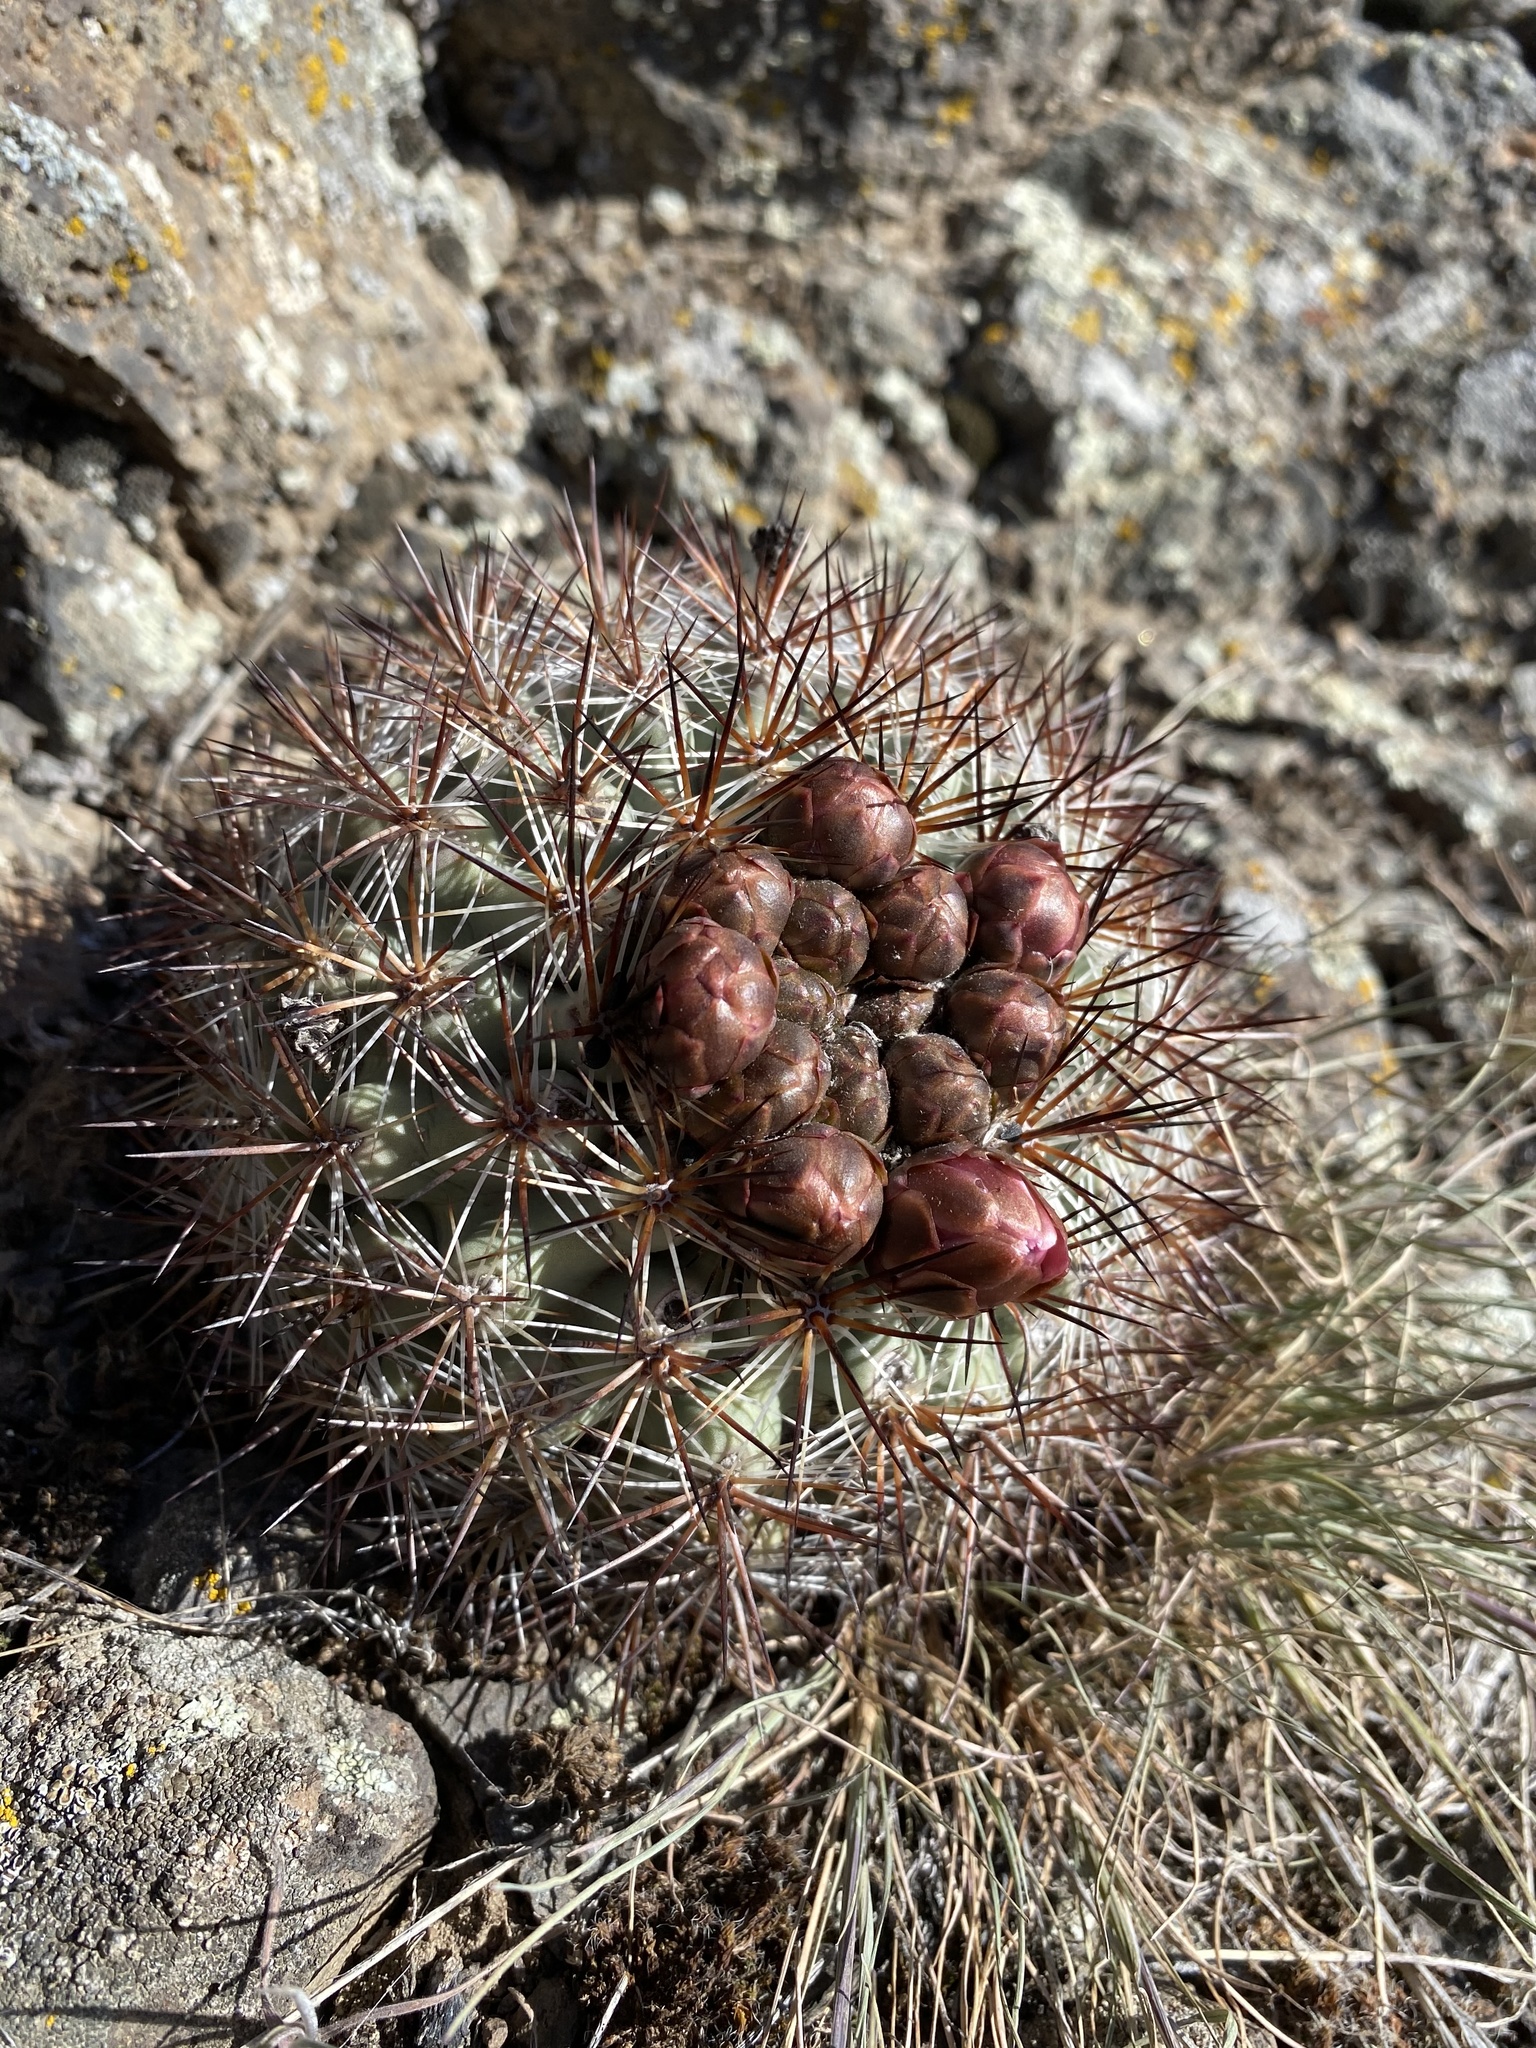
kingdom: Plantae
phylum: Tracheophyta
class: Magnoliopsida
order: Caryophyllales
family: Cactaceae
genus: Pediocactus
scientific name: Pediocactus nigrispinus
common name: Simpson's hedgehog cactus
